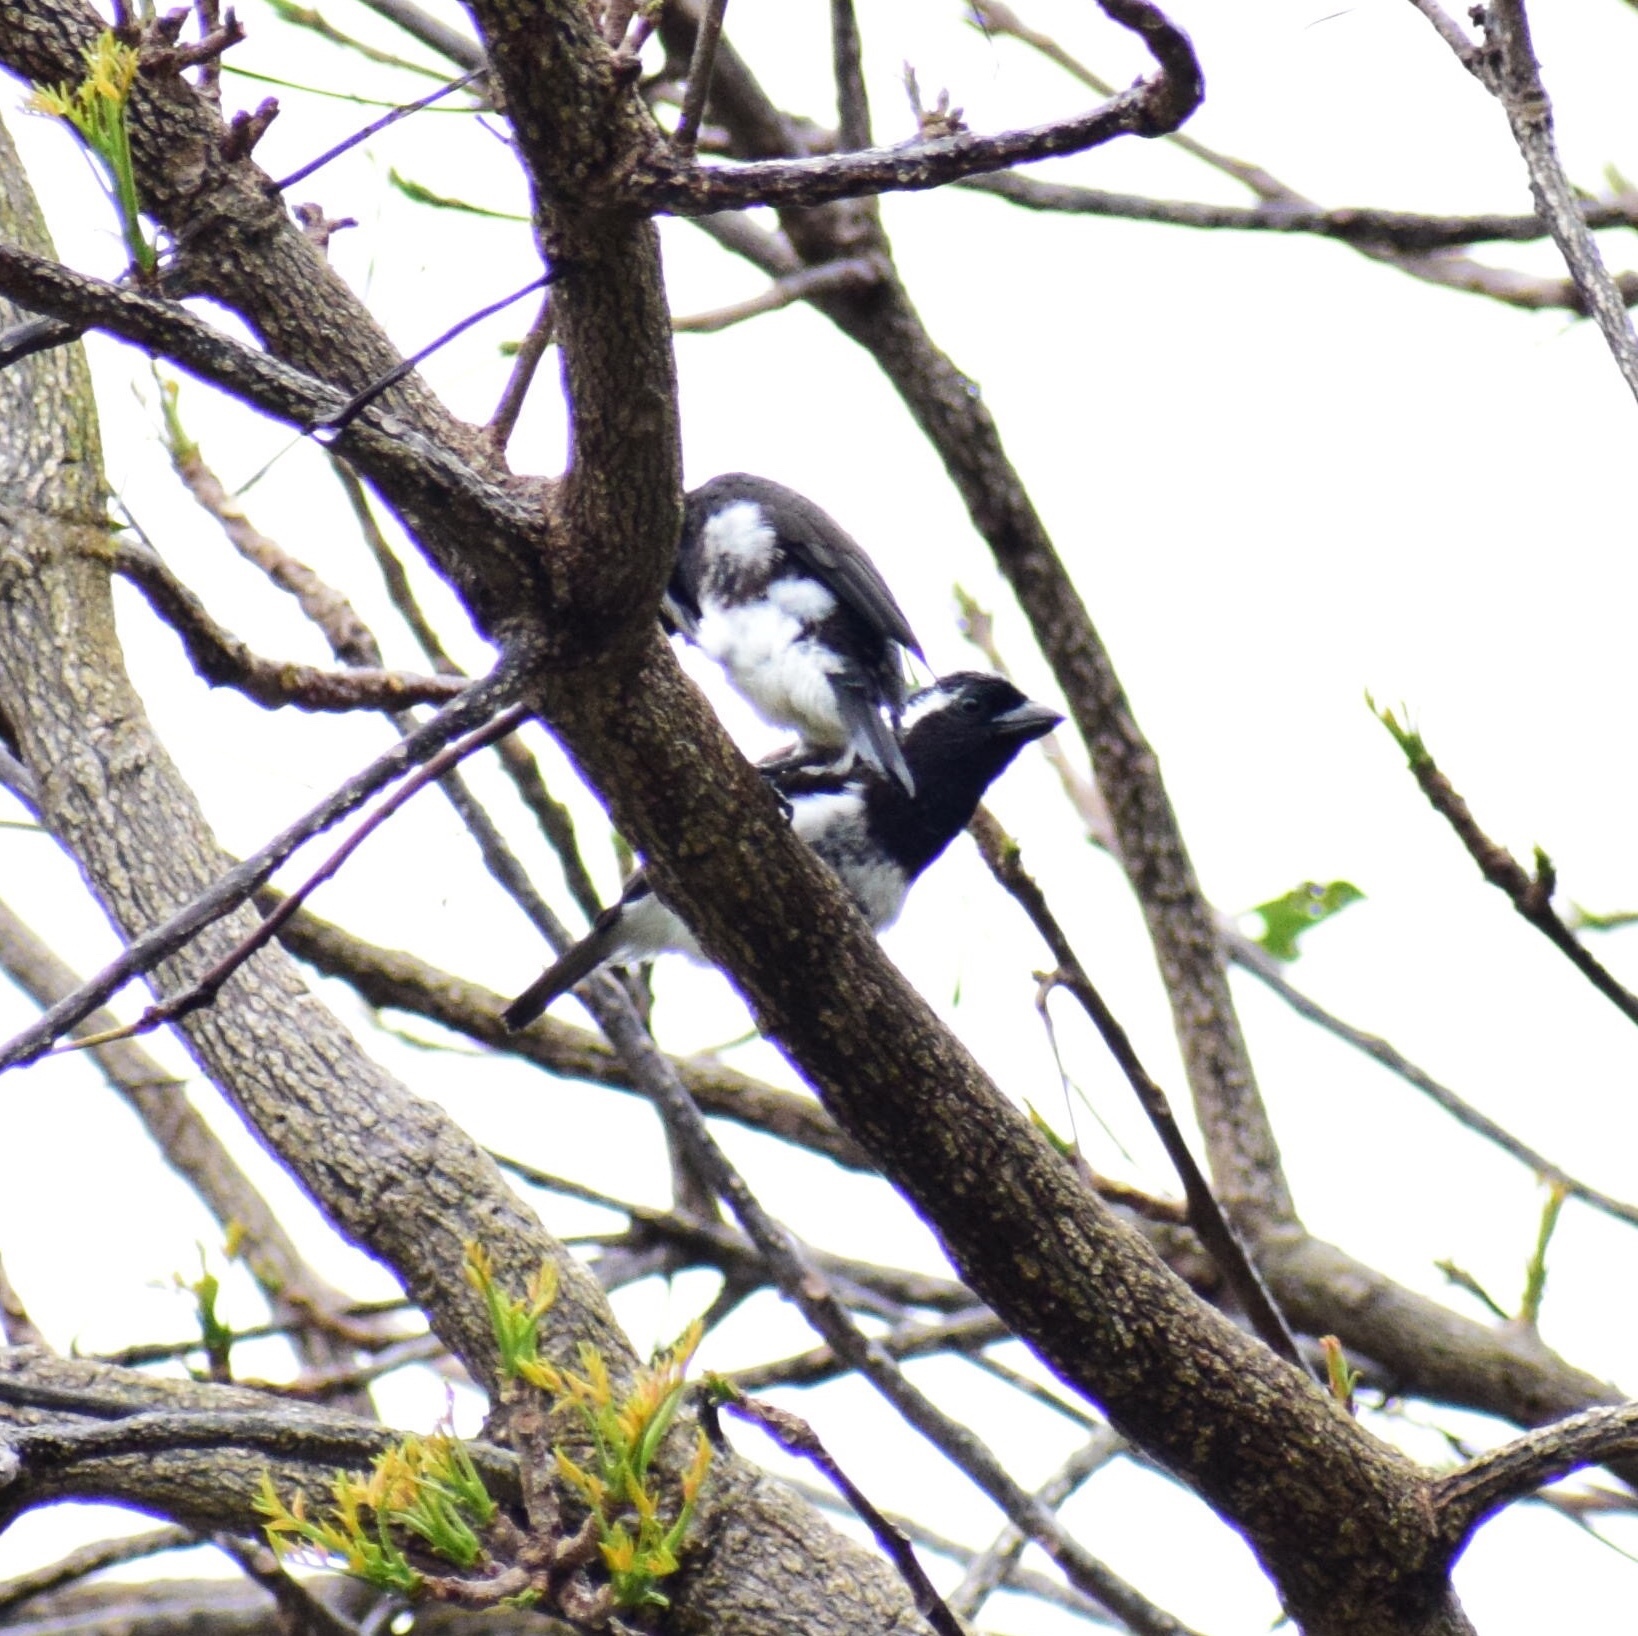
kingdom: Animalia
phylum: Chordata
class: Aves
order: Piciformes
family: Lybiidae
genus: Stactolaema
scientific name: Stactolaema leucotis
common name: White-eared barbet
